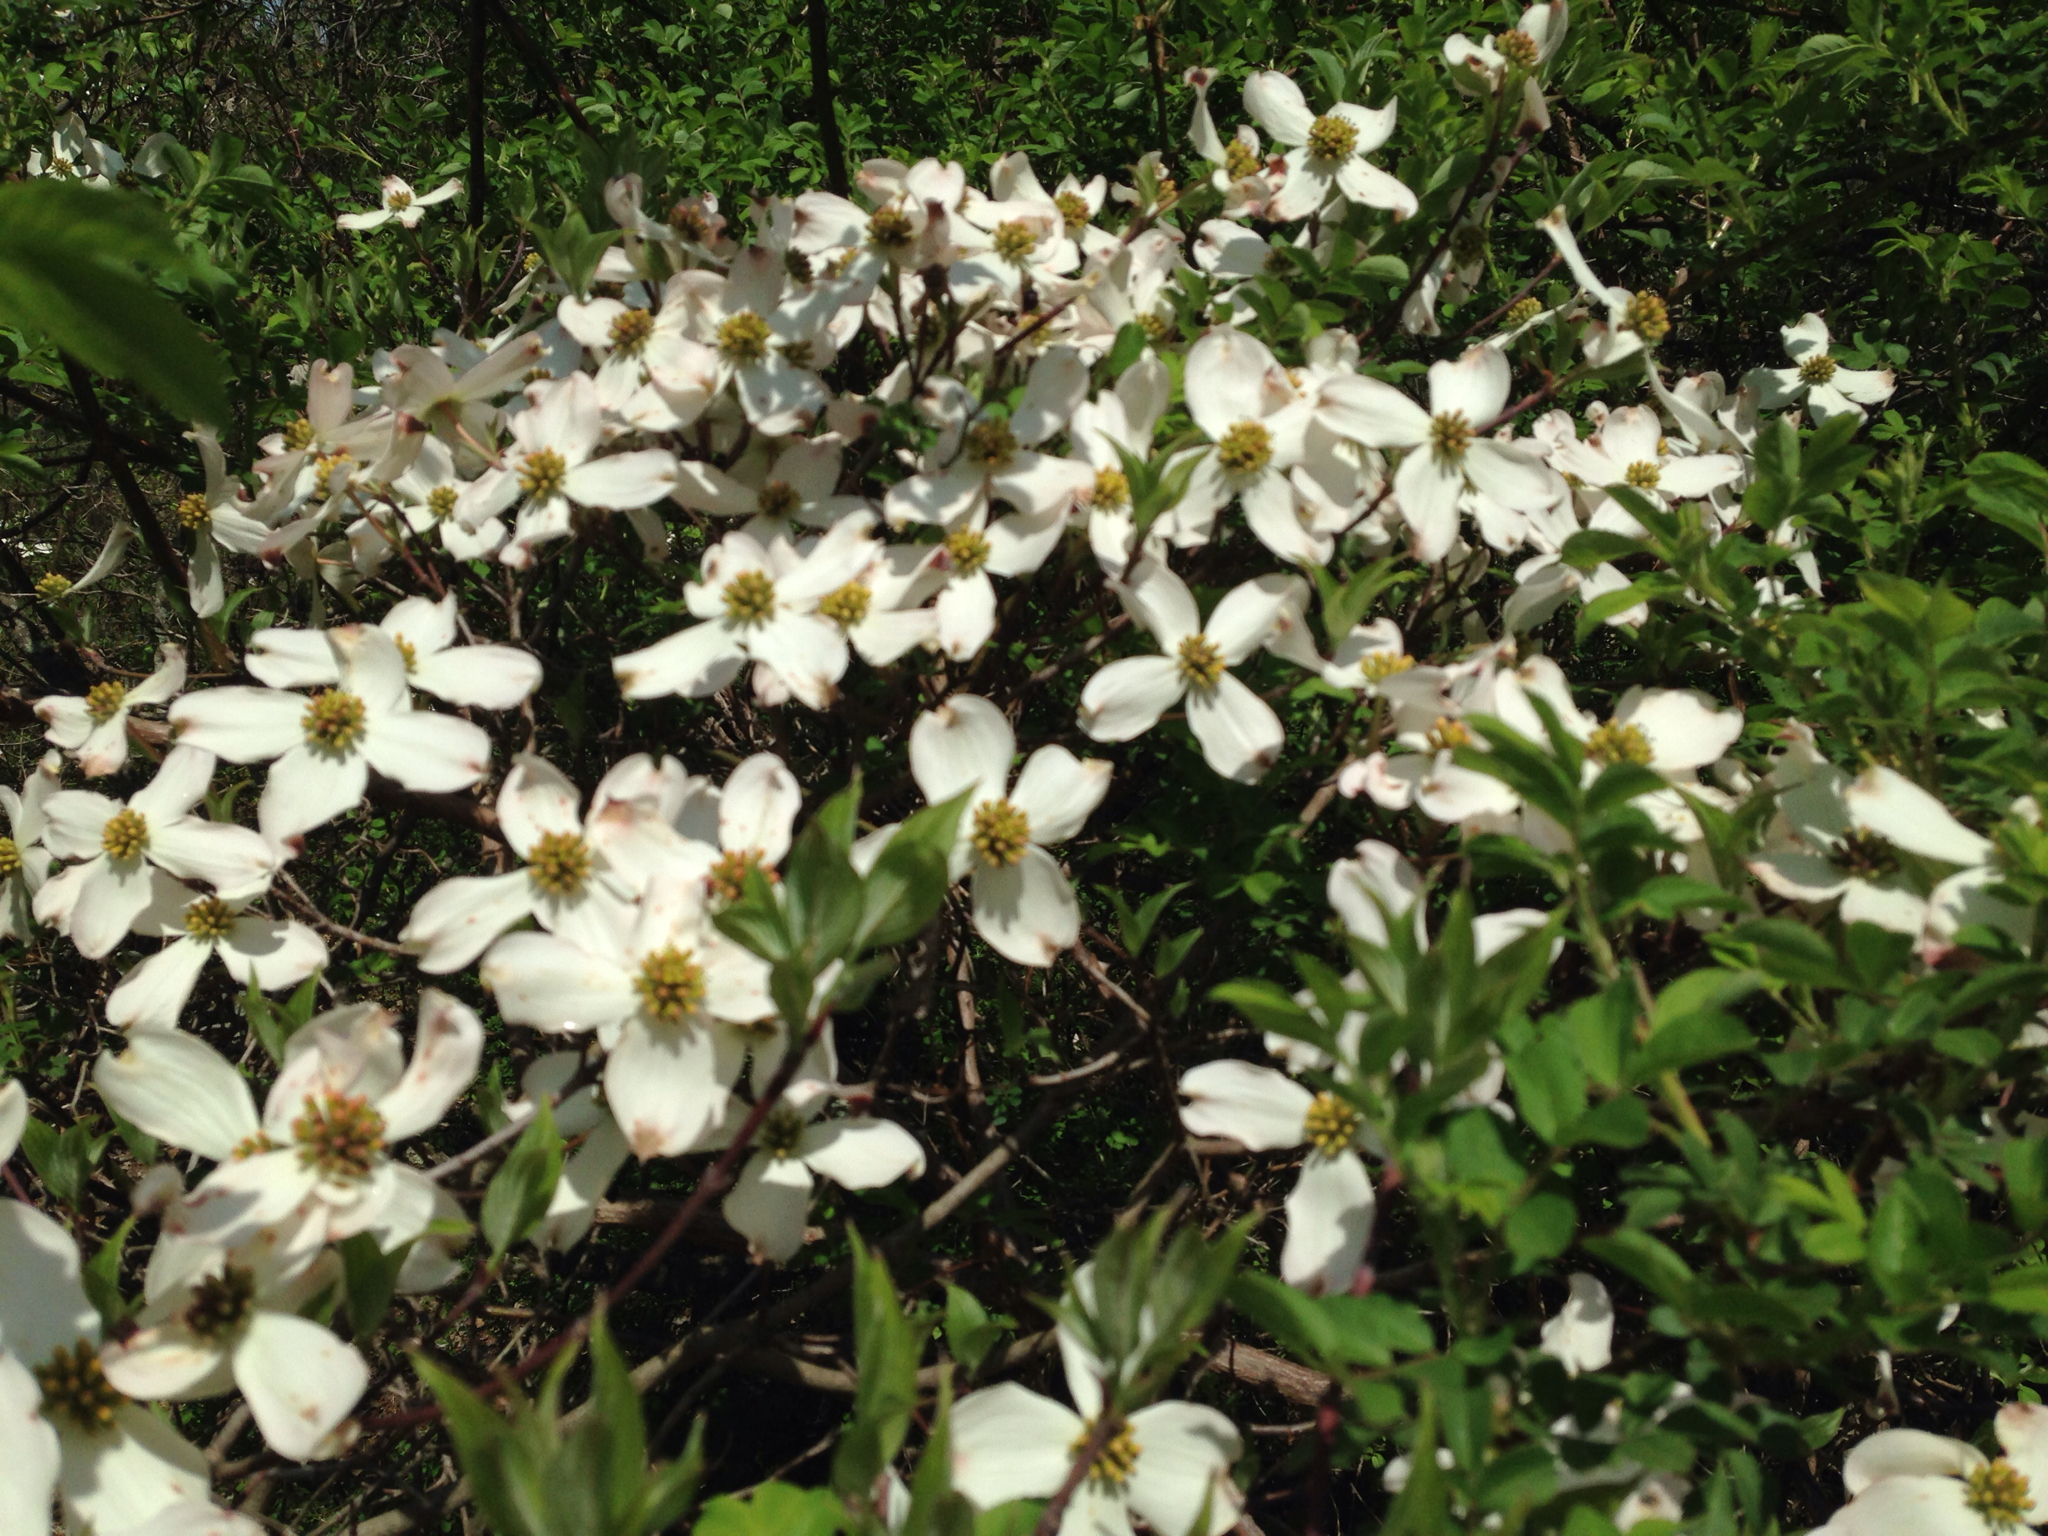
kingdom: Plantae
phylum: Tracheophyta
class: Magnoliopsida
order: Cornales
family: Cornaceae
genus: Cornus
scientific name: Cornus florida
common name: Flowering dogwood
